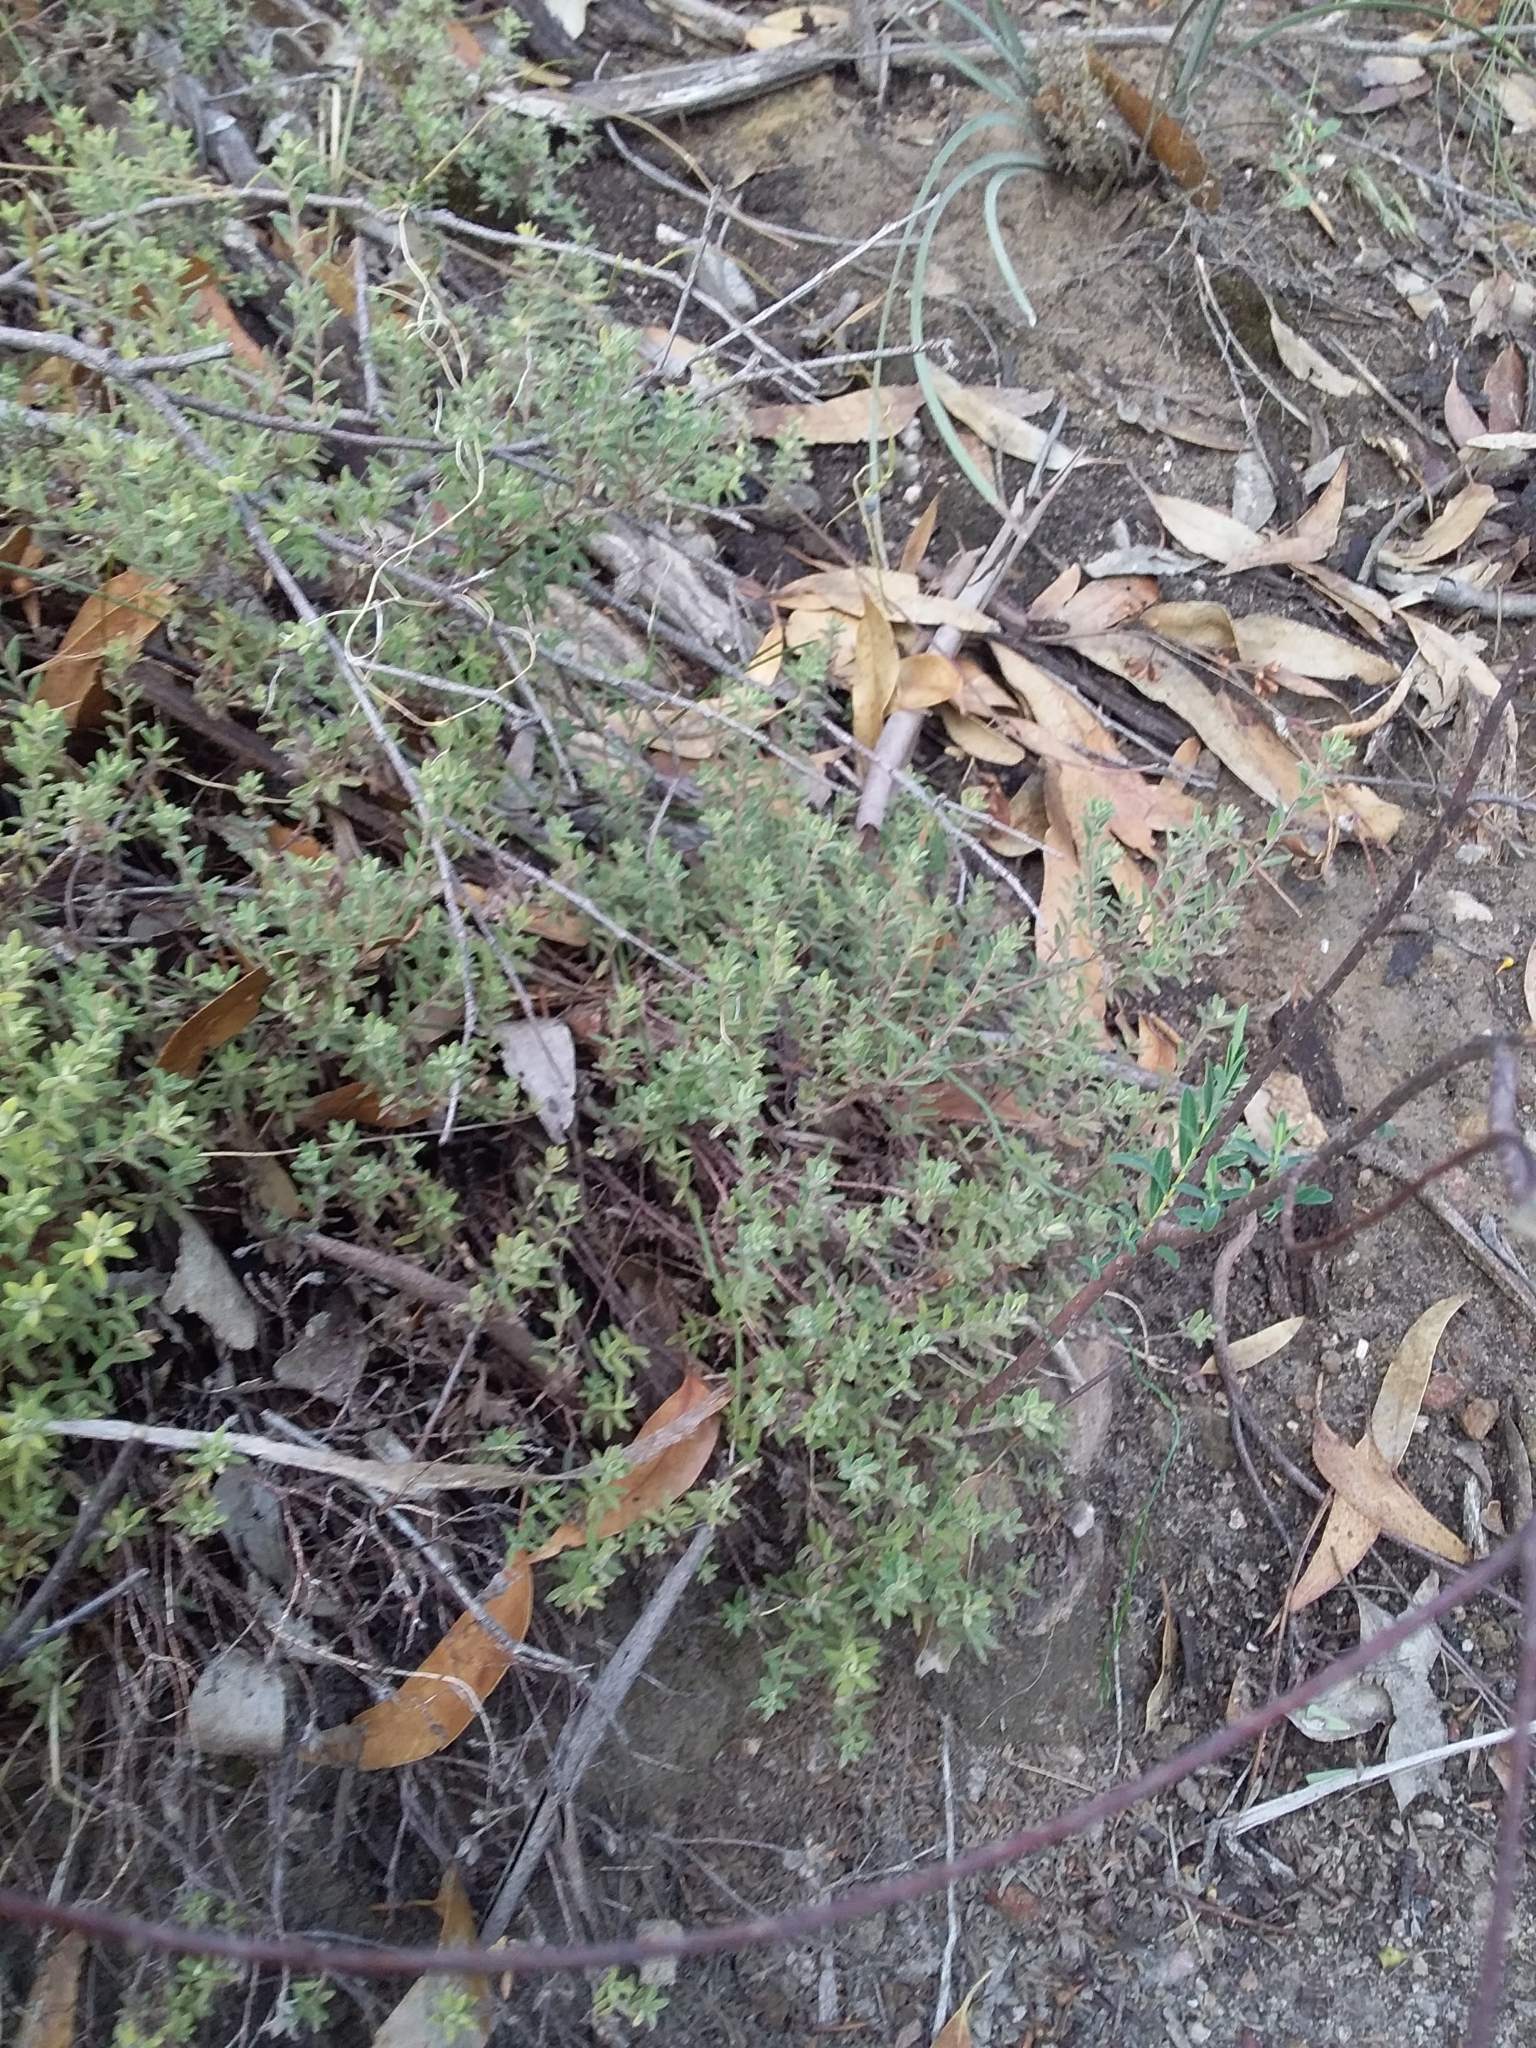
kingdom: Plantae
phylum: Tracheophyta
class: Magnoliopsida
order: Dilleniales
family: Dilleniaceae
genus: Hibbertia
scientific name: Hibbertia crinita
